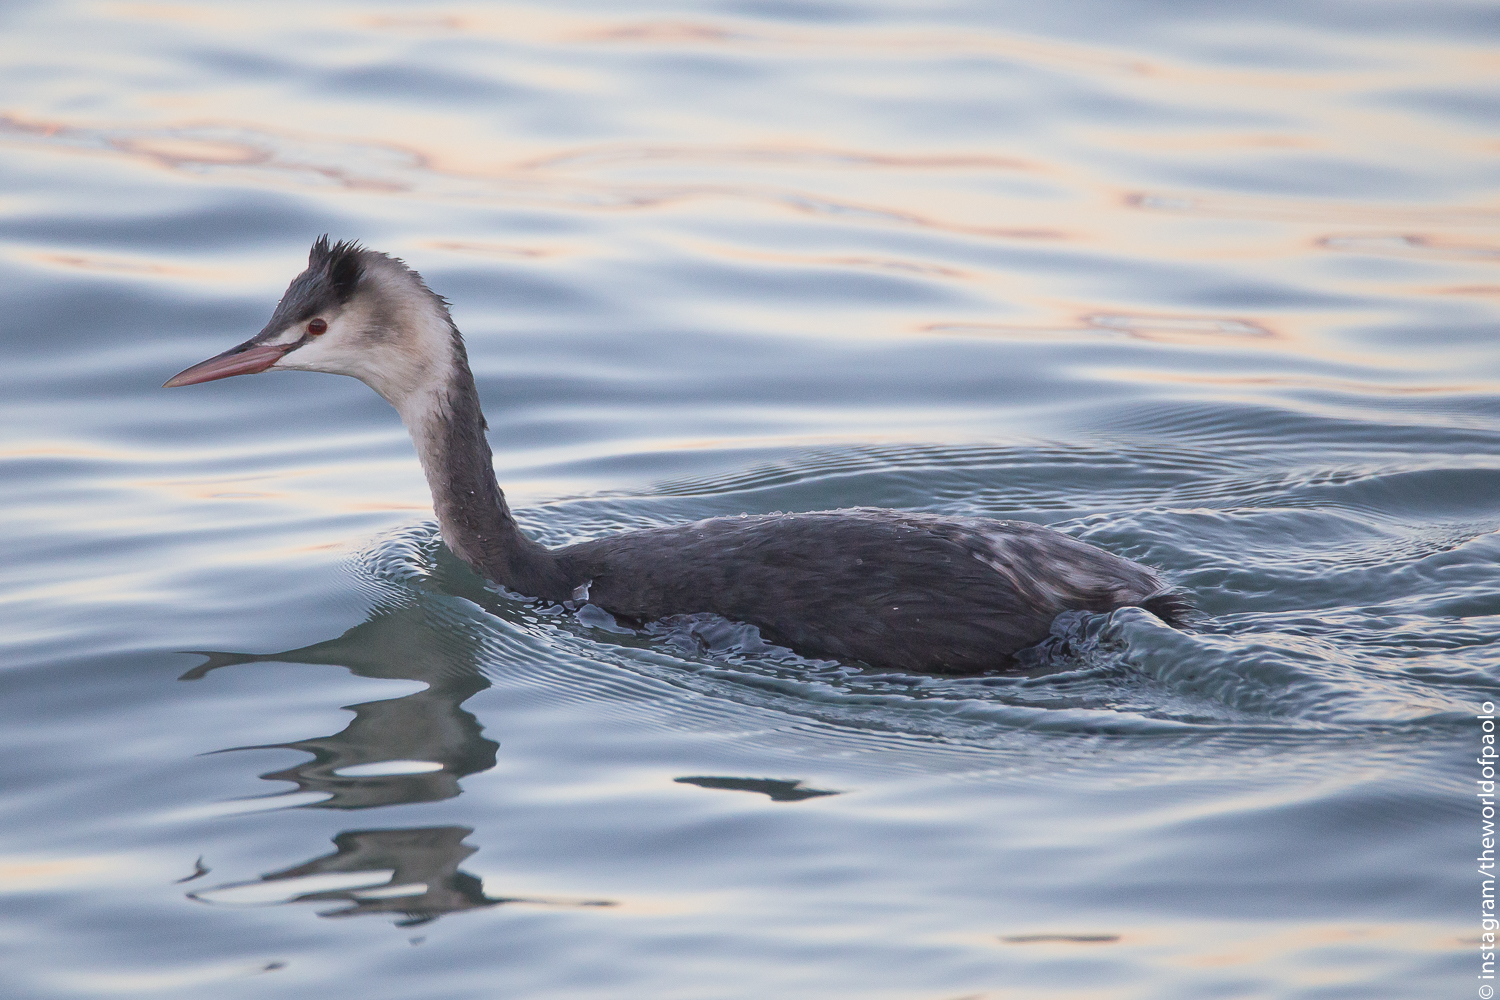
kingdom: Animalia
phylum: Chordata
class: Aves
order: Podicipediformes
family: Podicipedidae
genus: Podiceps
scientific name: Podiceps cristatus
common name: Great crested grebe
